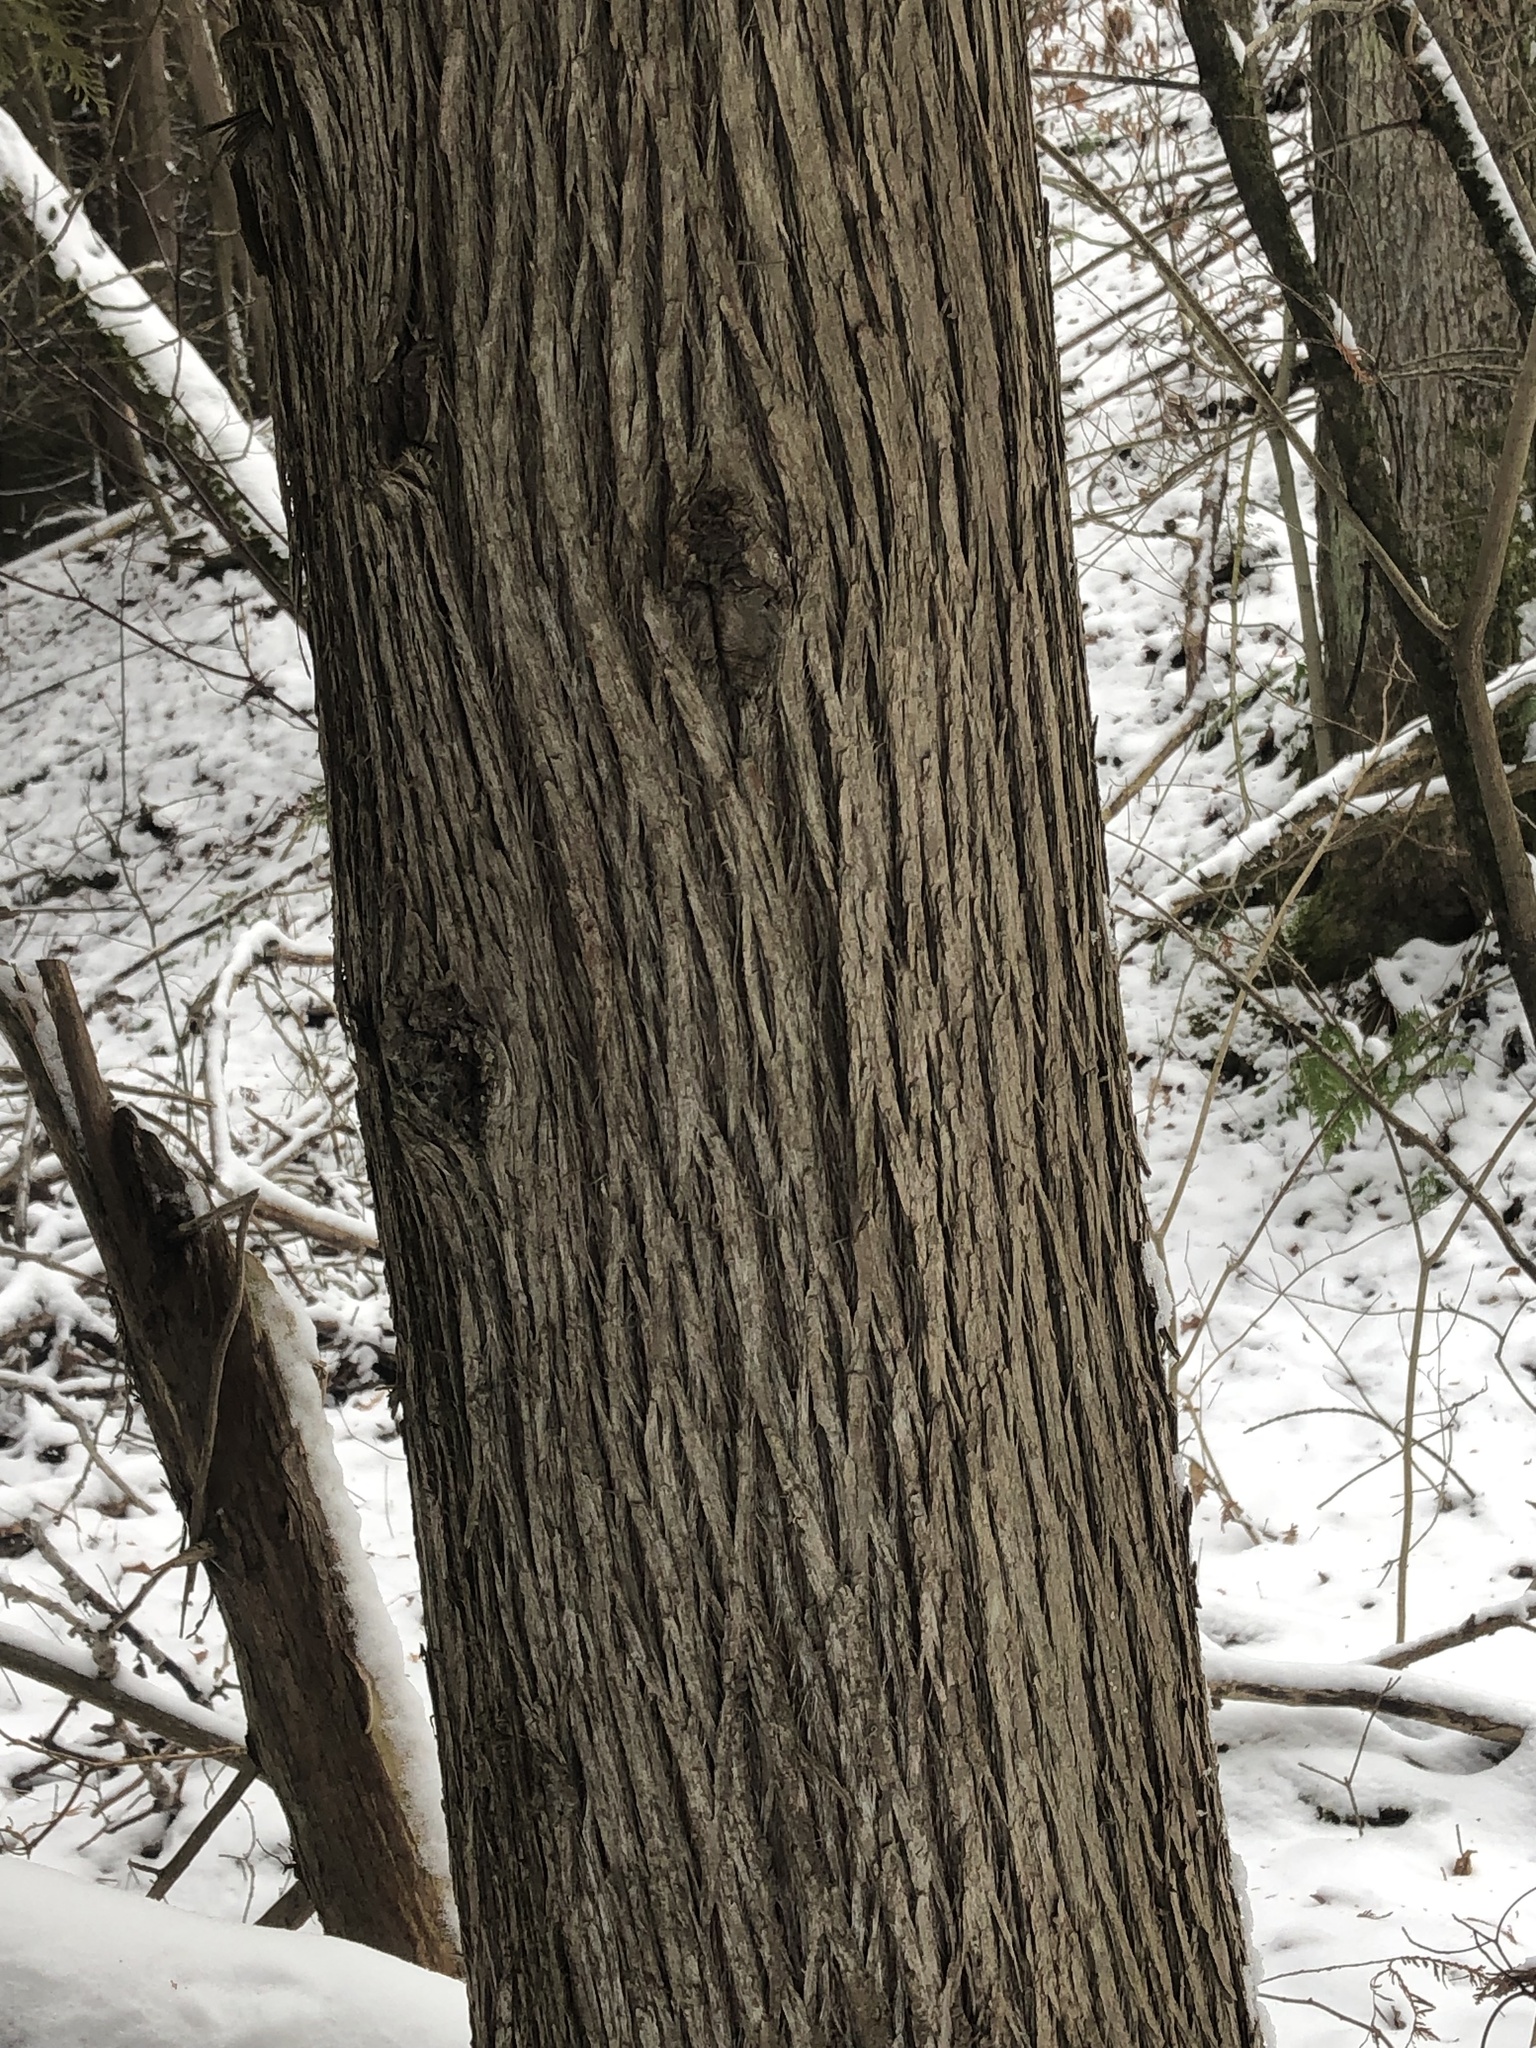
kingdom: Plantae
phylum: Tracheophyta
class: Pinopsida
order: Pinales
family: Cupressaceae
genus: Thuja
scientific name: Thuja occidentalis
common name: Northern white-cedar
